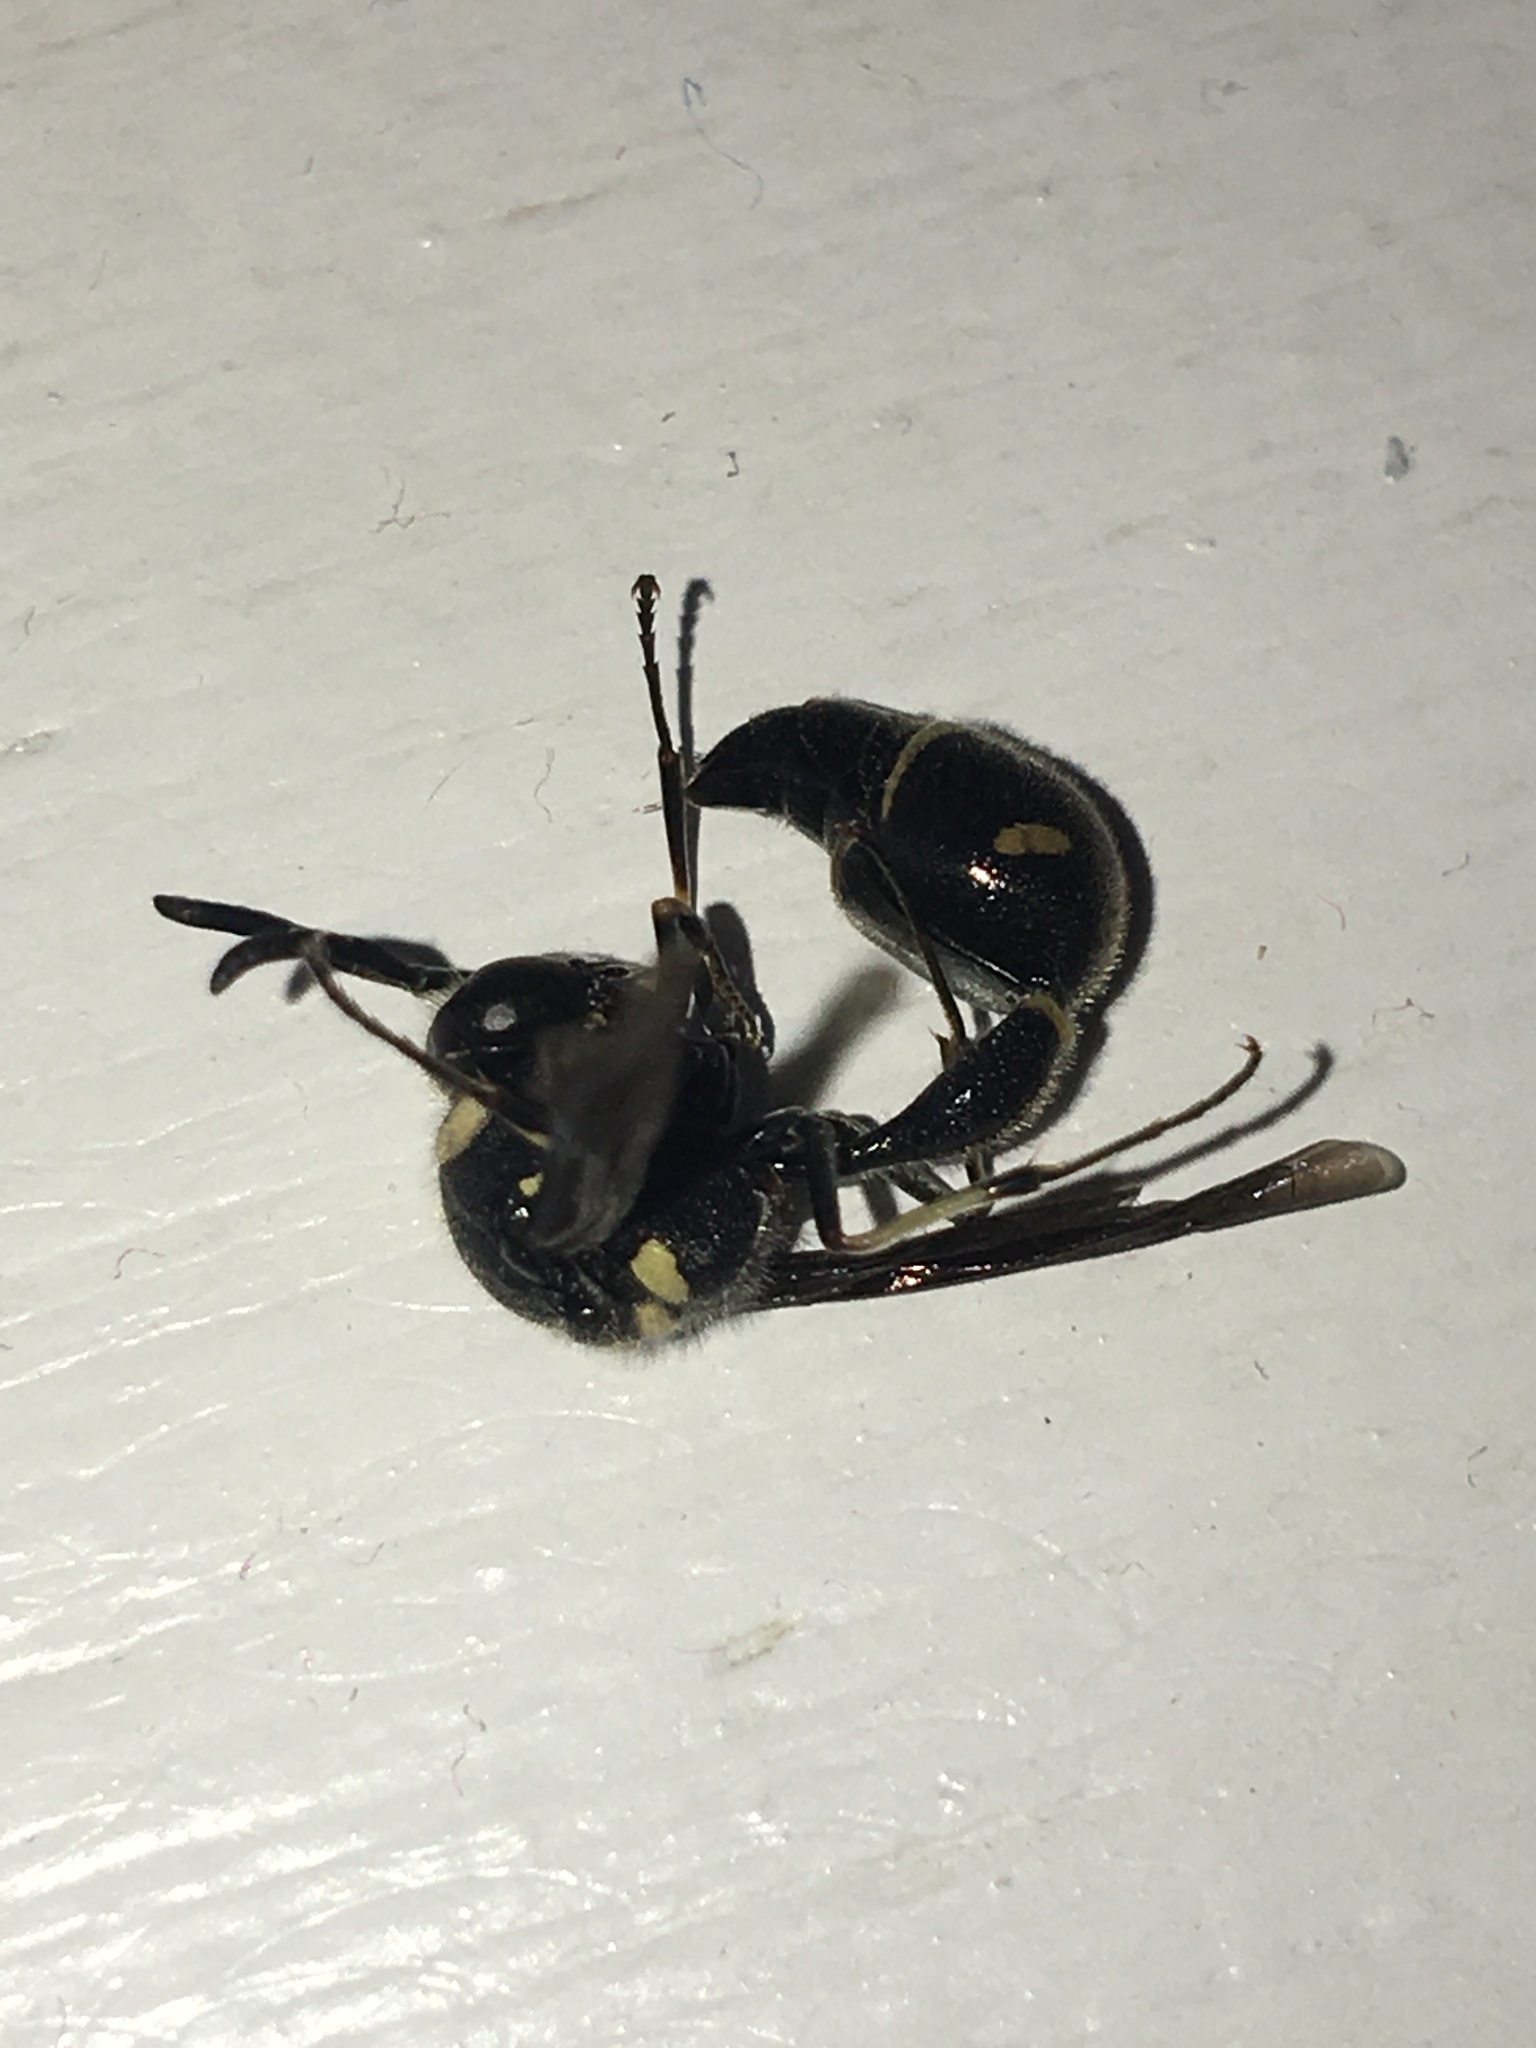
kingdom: Animalia
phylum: Arthropoda
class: Insecta
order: Hymenoptera
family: Vespidae
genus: Eumenes
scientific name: Eumenes fraternus
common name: Fraternal potter wasp
